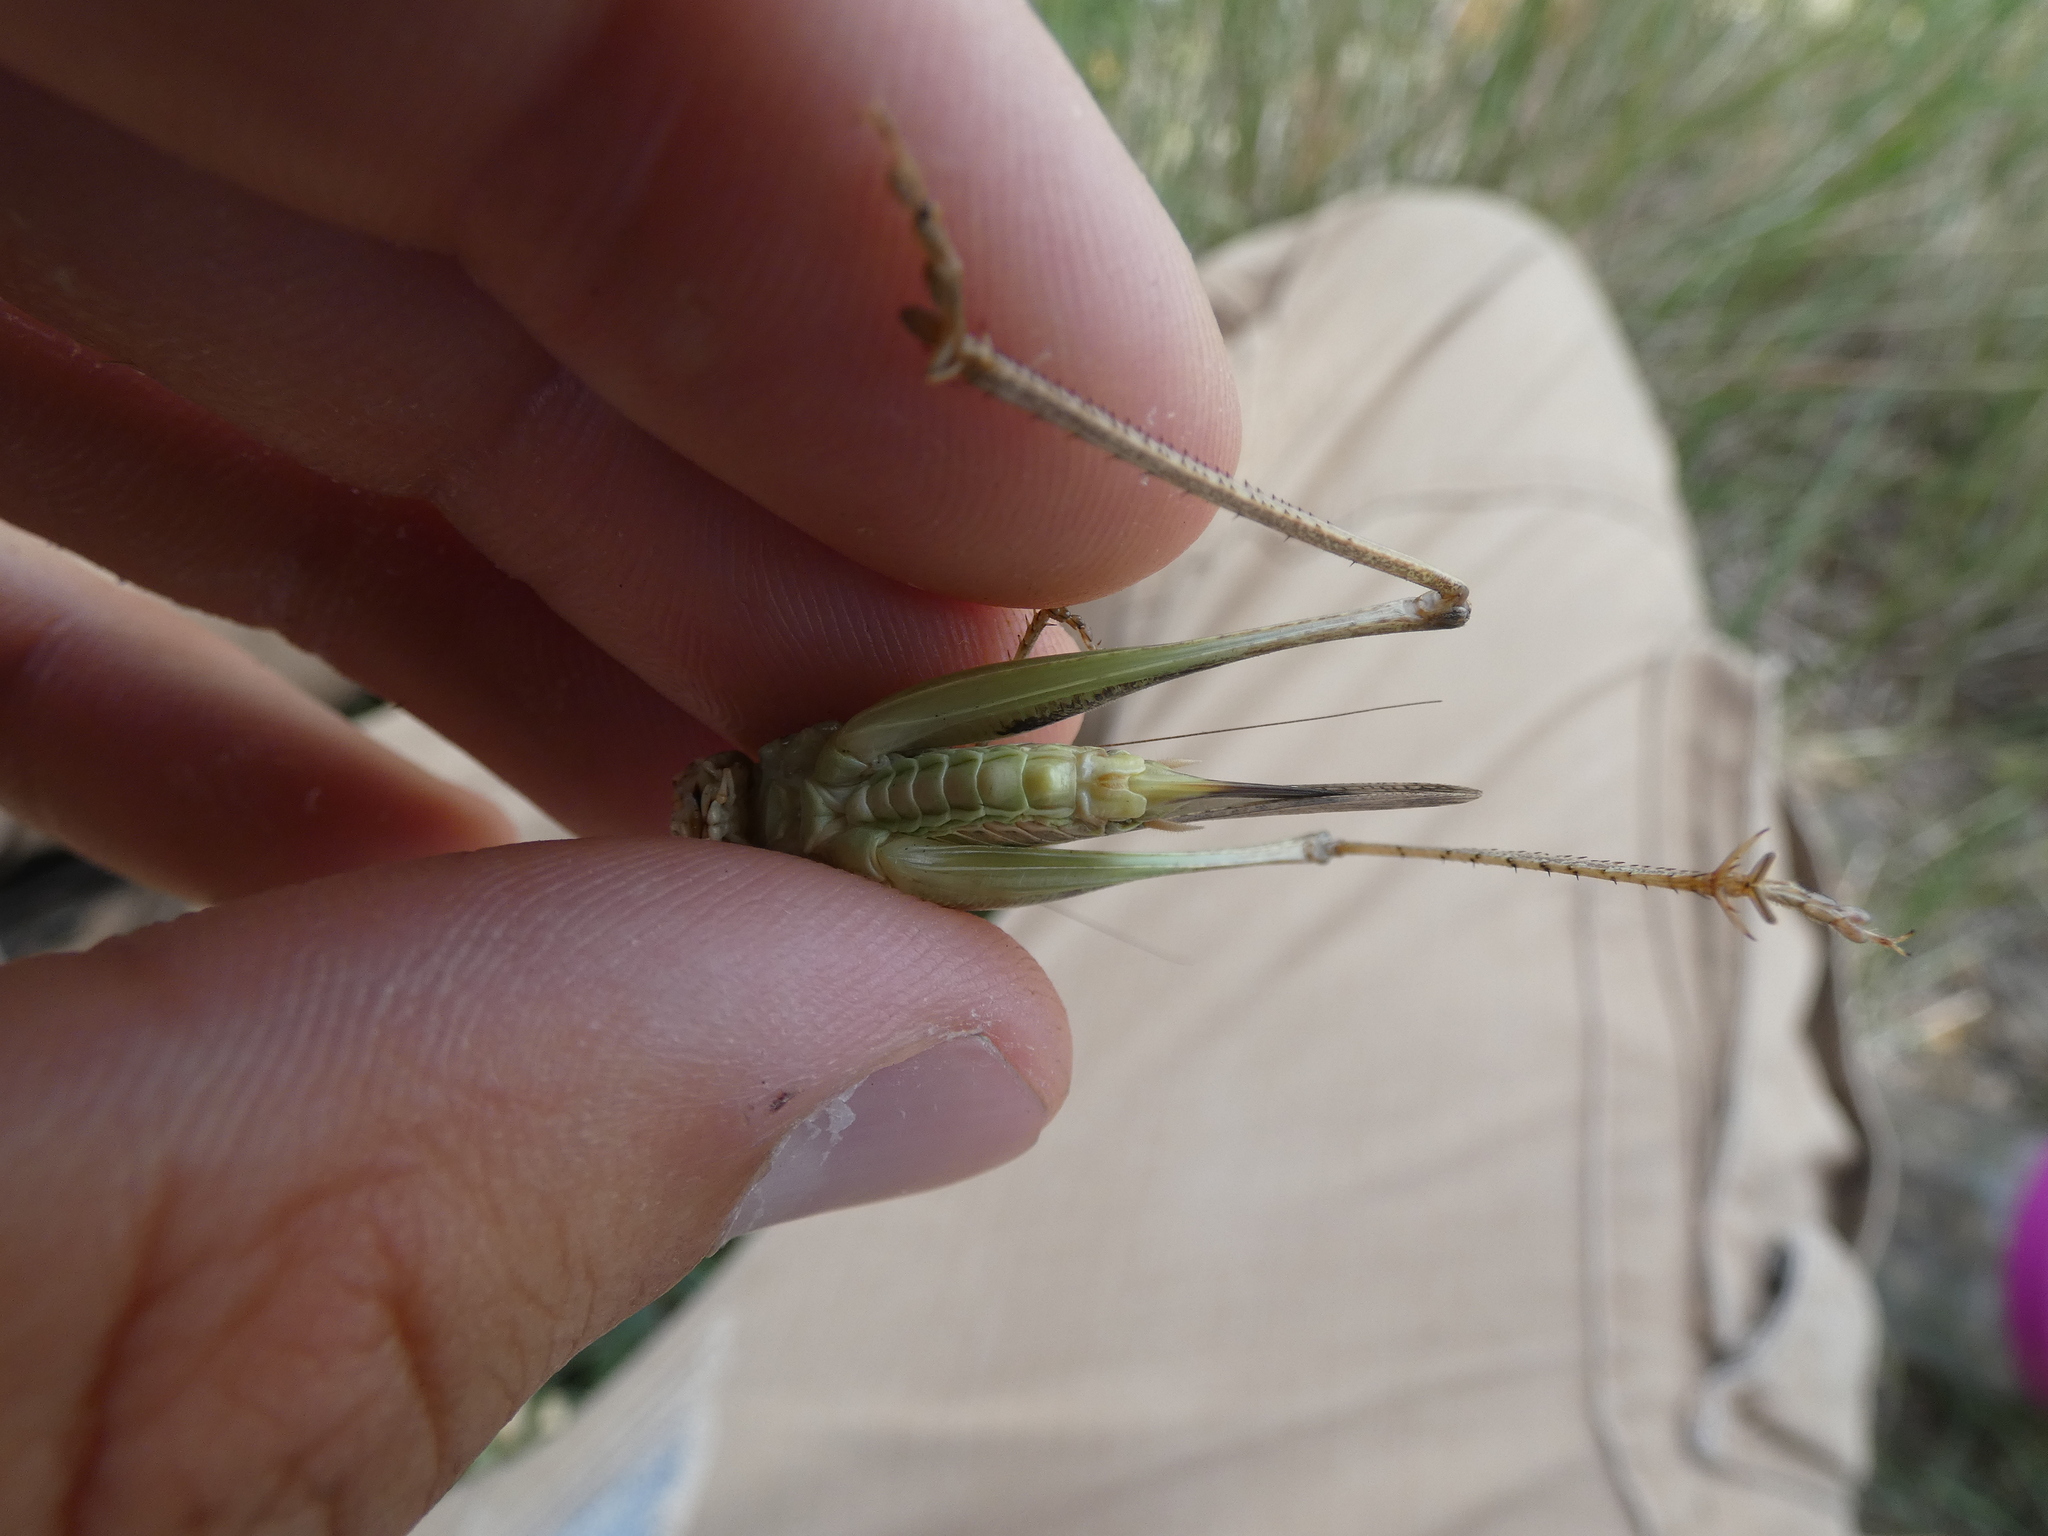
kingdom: Animalia
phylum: Arthropoda
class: Insecta
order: Orthoptera
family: Tettigoniidae
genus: Platycleis
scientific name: Platycleis affinis
